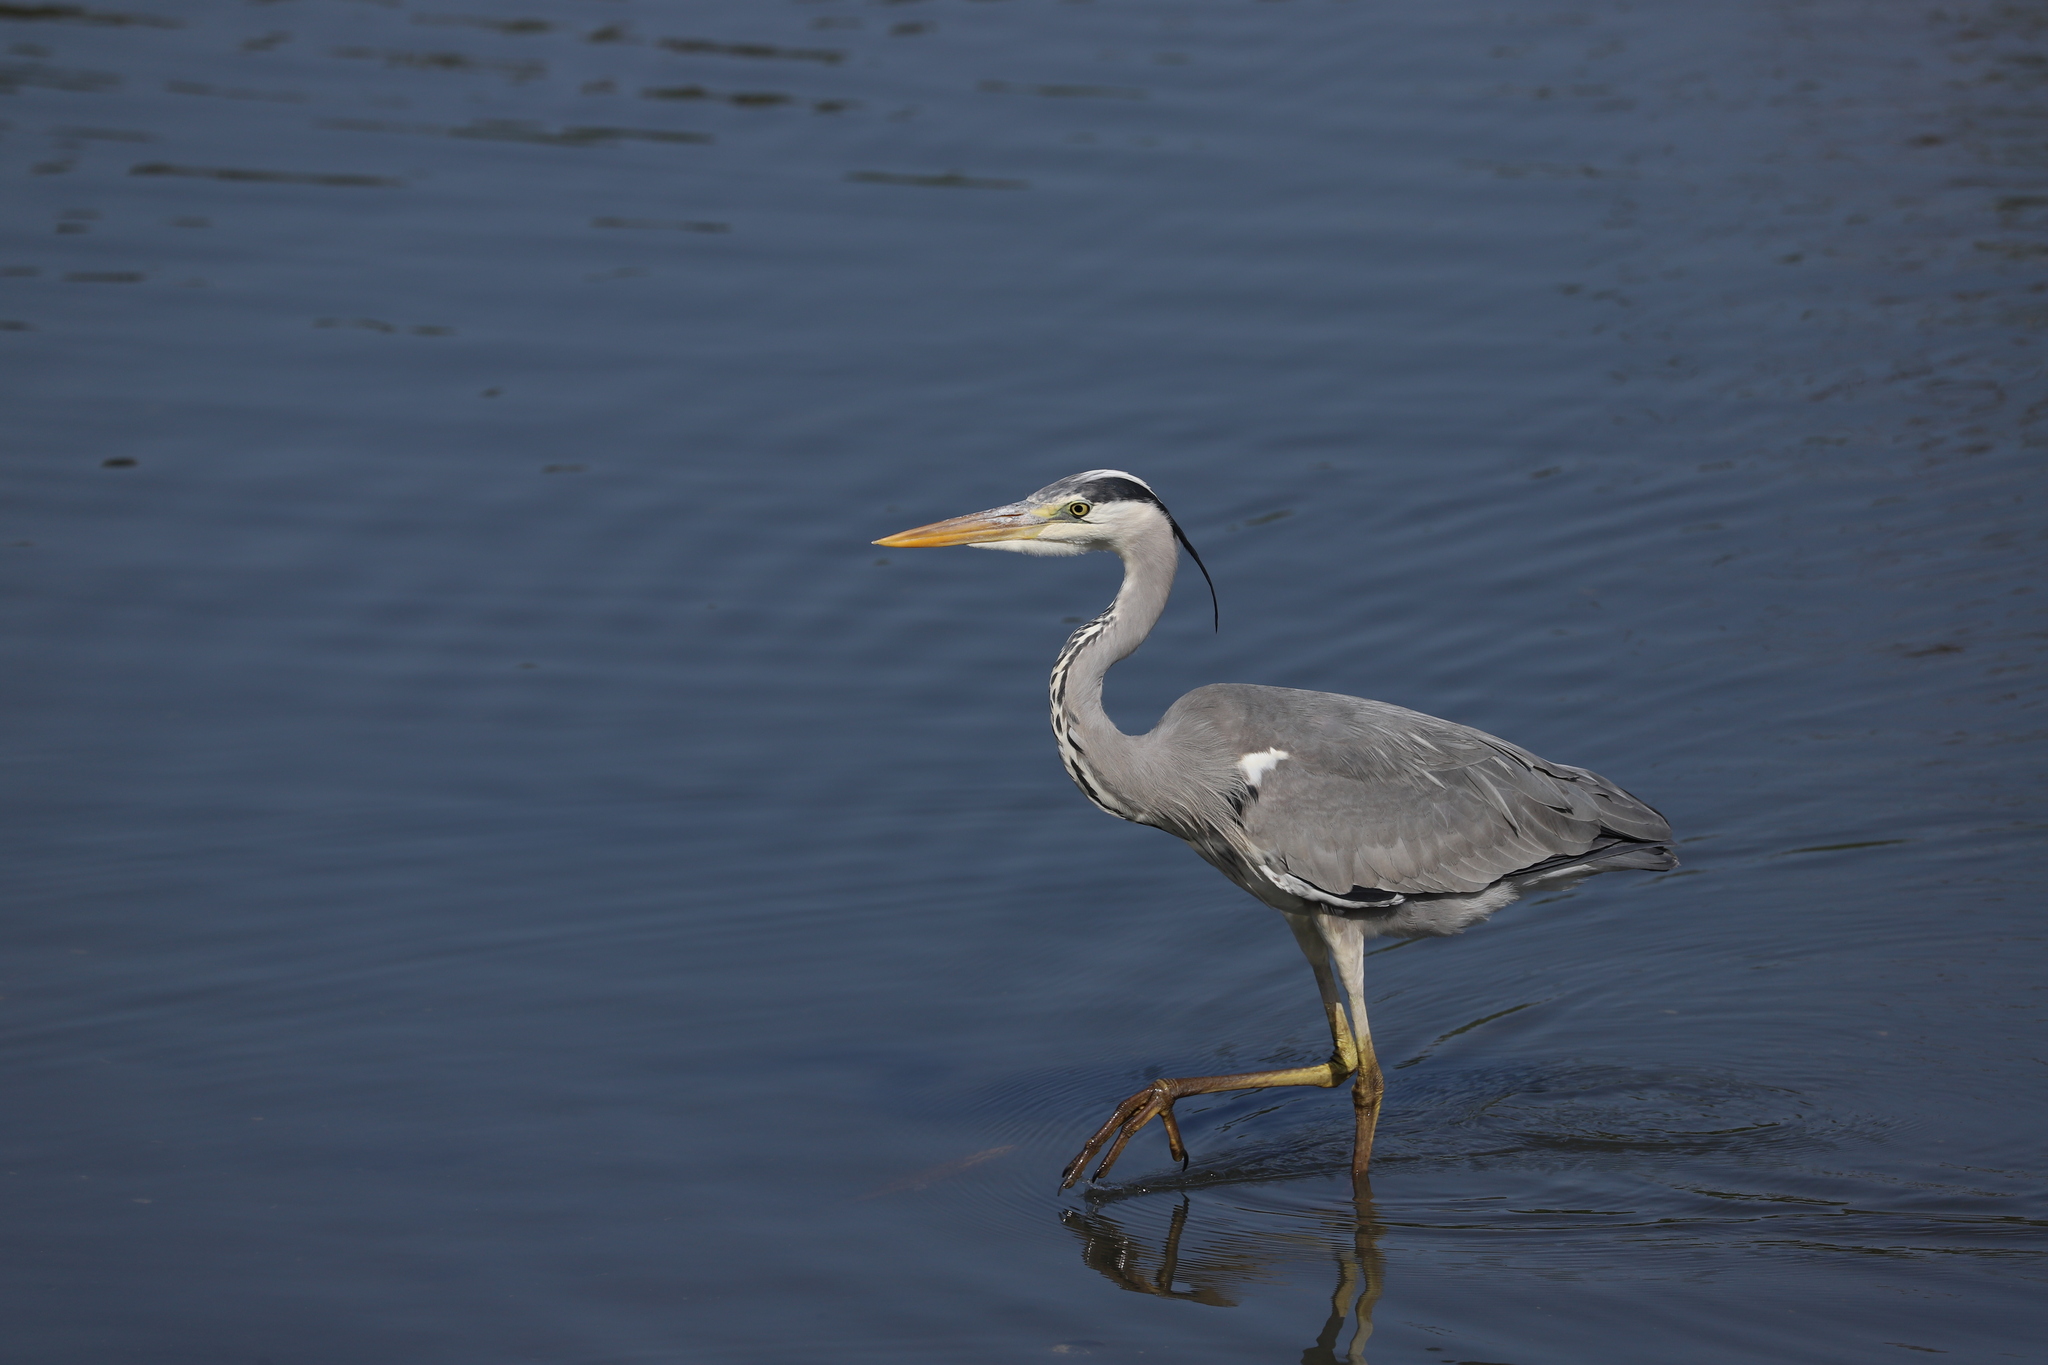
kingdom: Animalia
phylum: Chordata
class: Aves
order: Pelecaniformes
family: Ardeidae
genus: Ardea
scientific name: Ardea cinerea
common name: Grey heron
